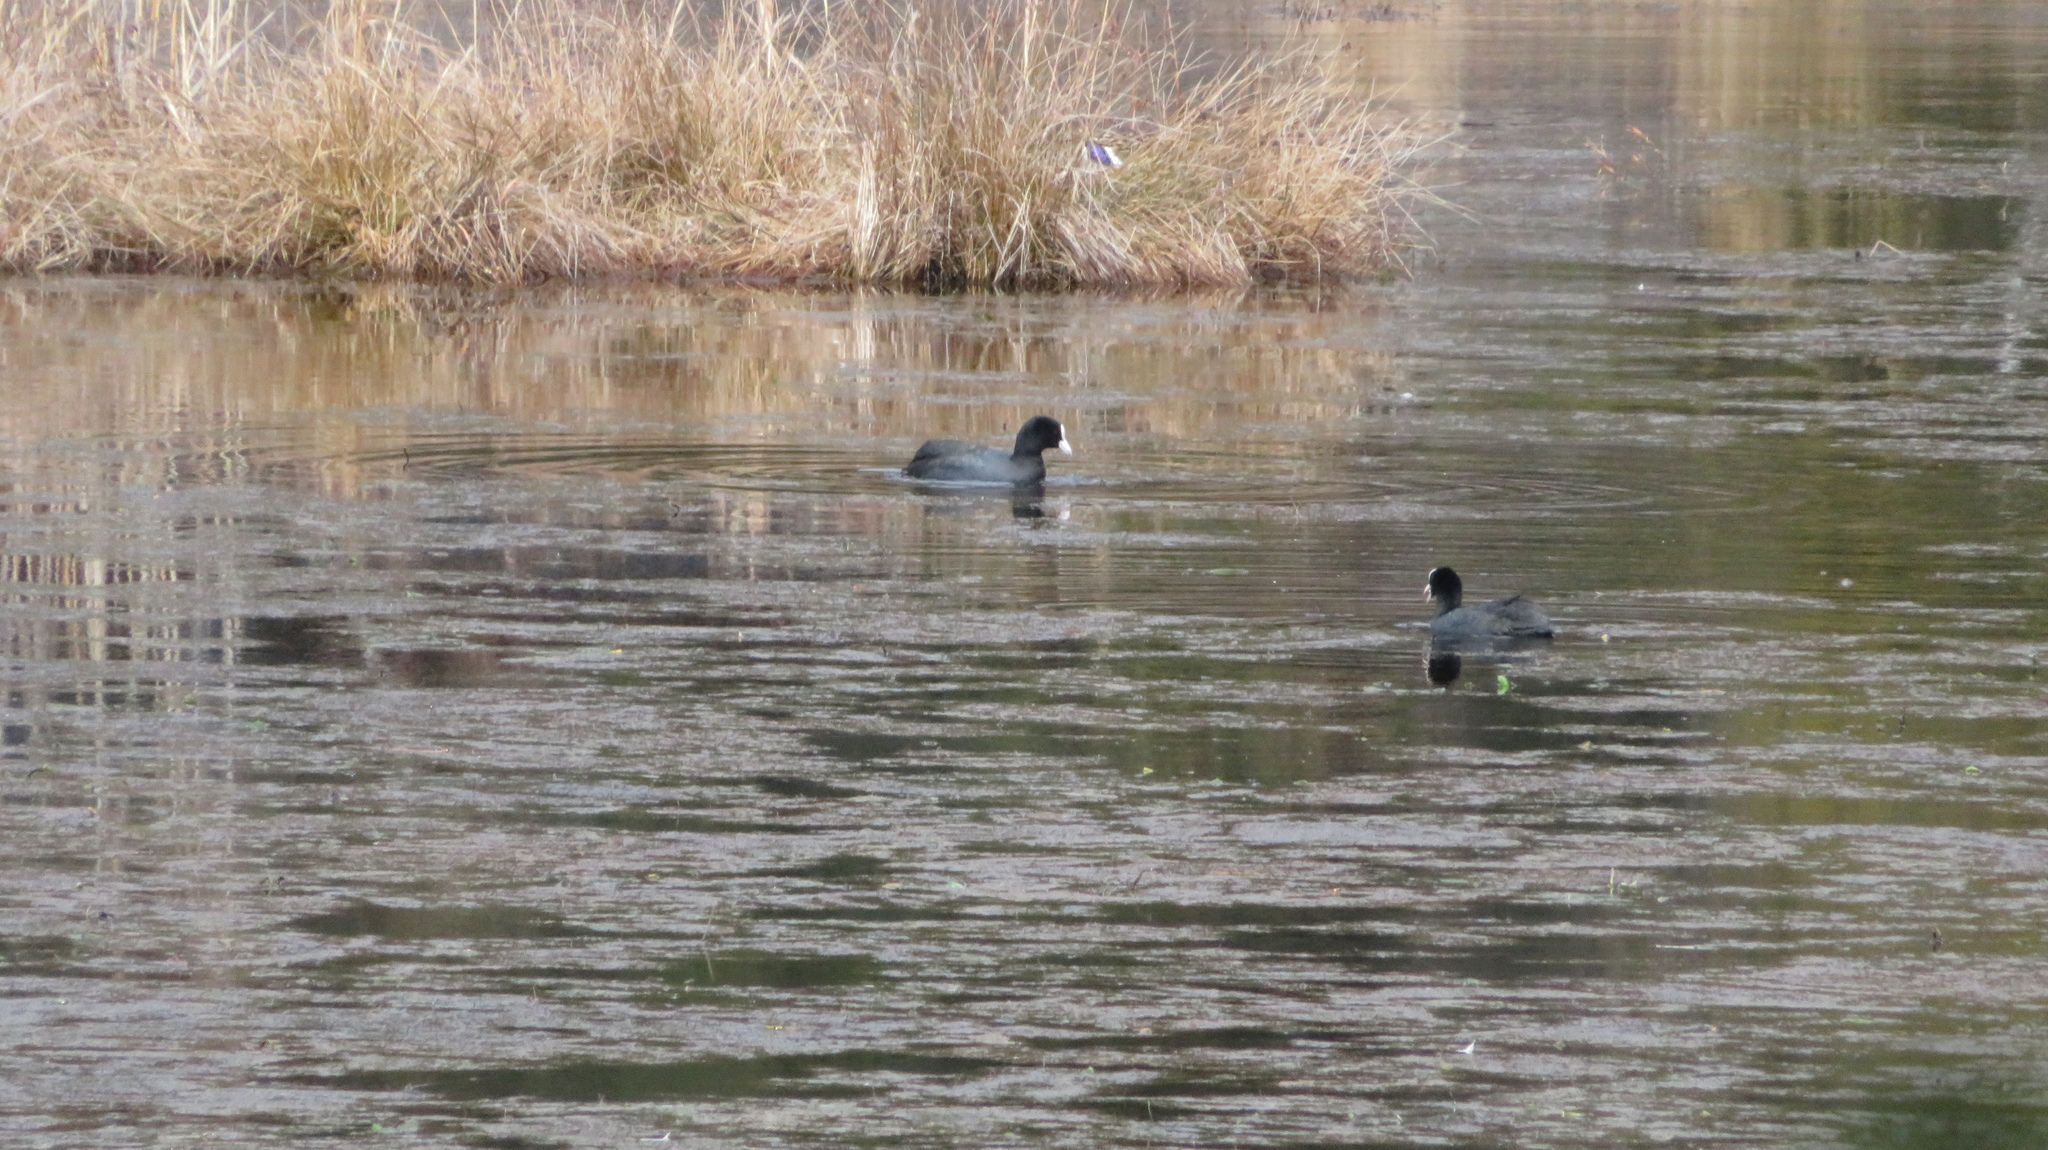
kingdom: Animalia
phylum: Chordata
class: Aves
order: Gruiformes
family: Rallidae
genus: Fulica
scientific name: Fulica atra
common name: Eurasian coot
